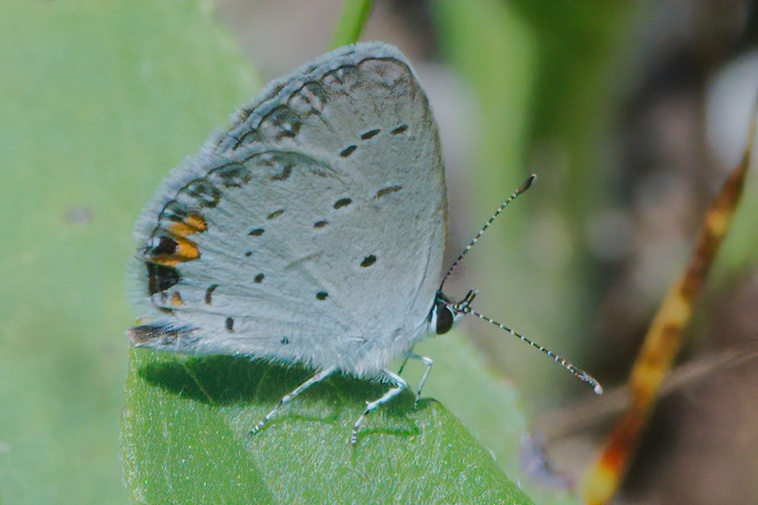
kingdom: Animalia
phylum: Arthropoda
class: Insecta
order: Lepidoptera
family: Lycaenidae
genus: Elkalyce
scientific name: Elkalyce comyntas
